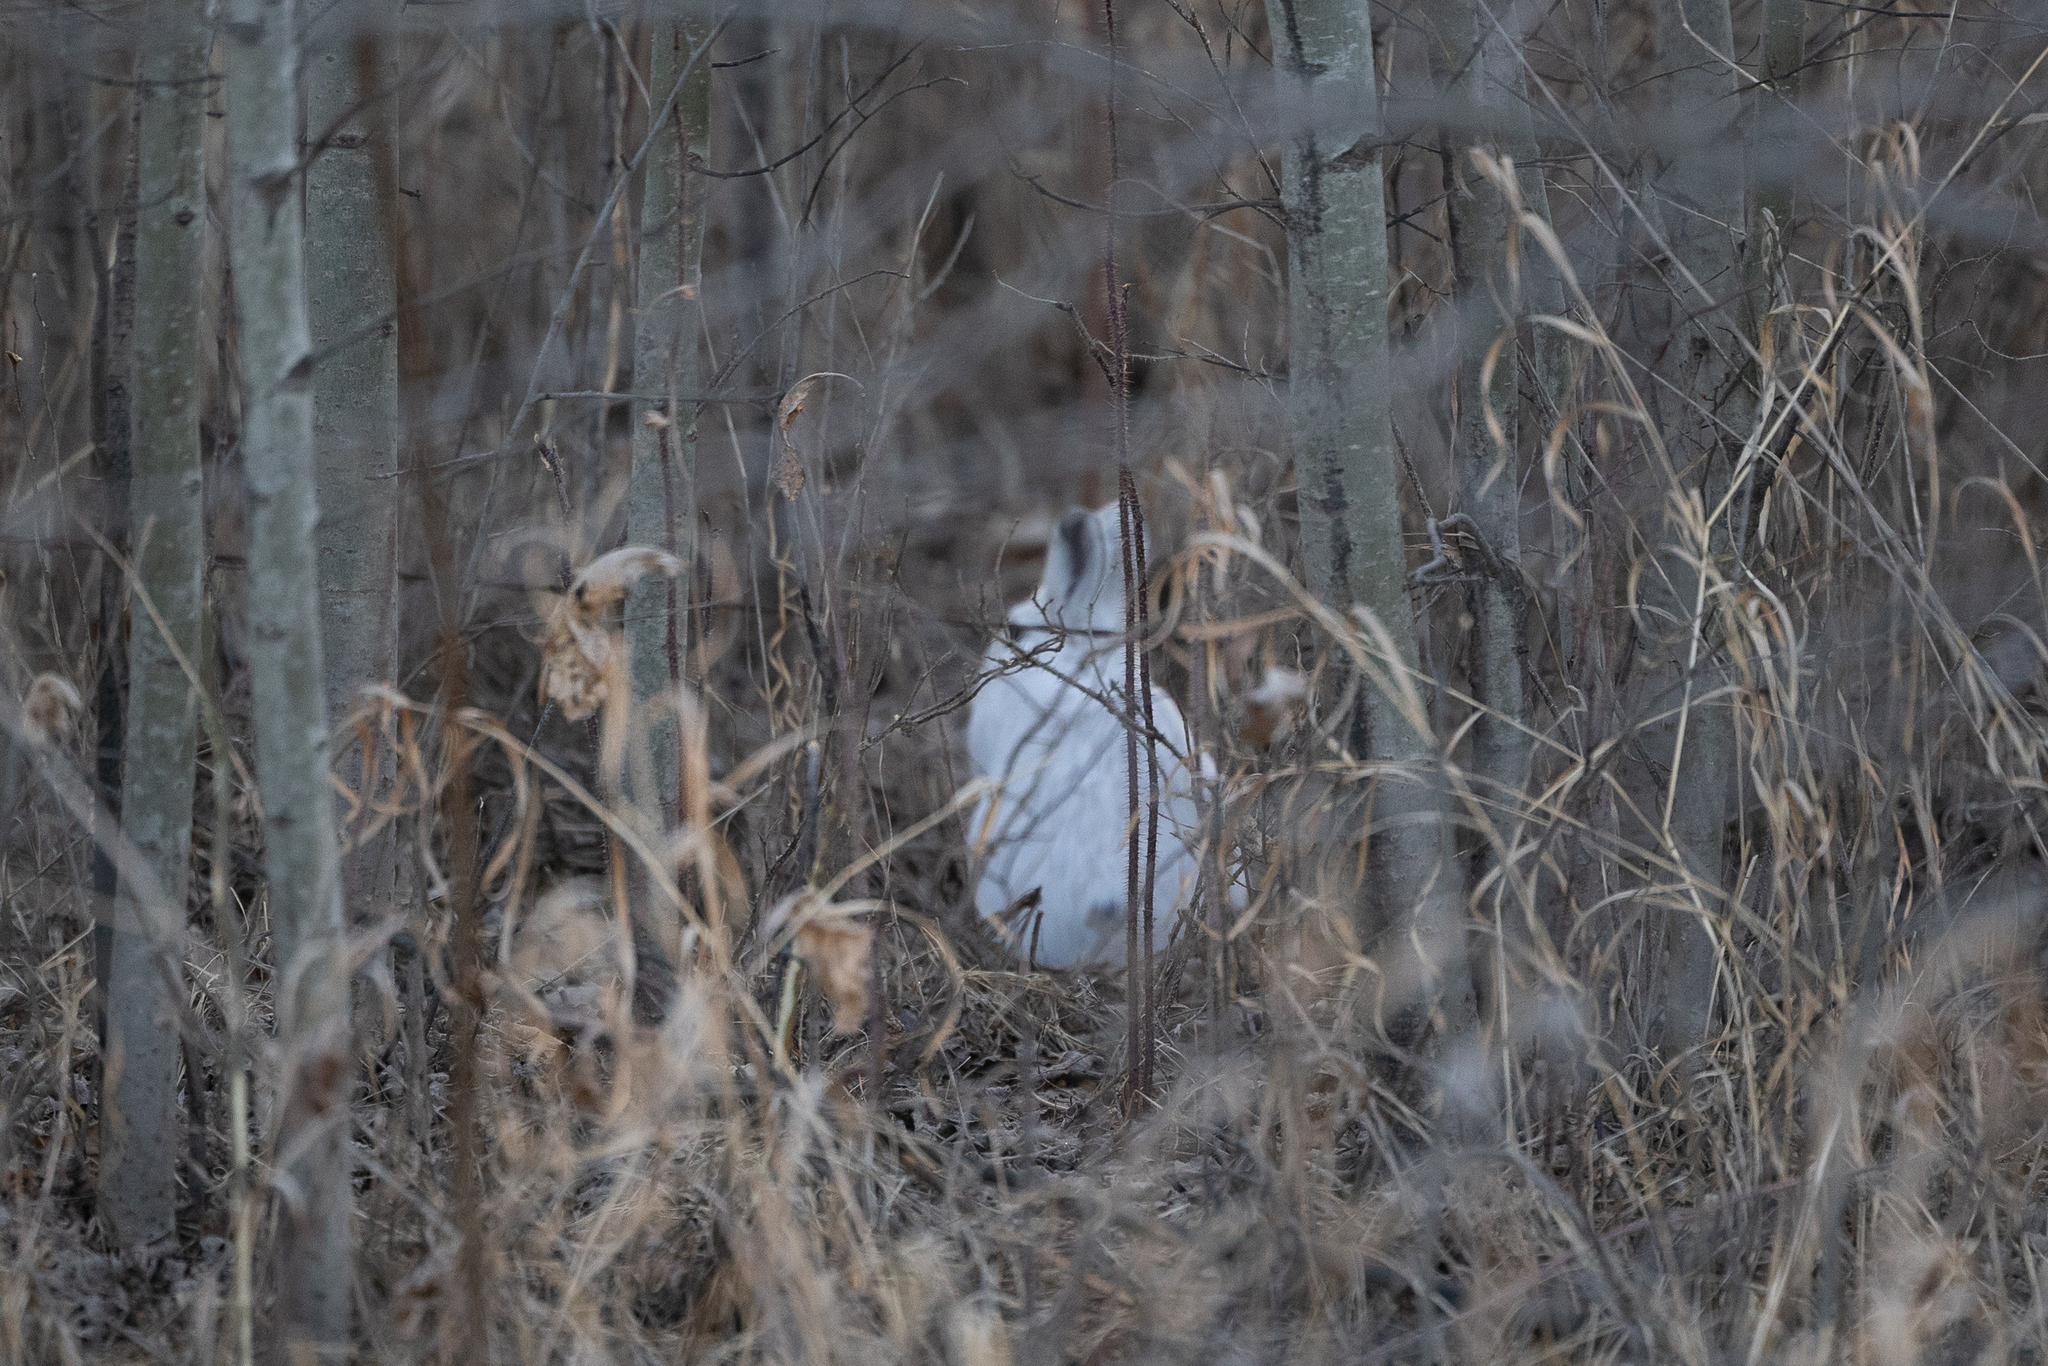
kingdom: Animalia
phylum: Chordata
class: Mammalia
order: Lagomorpha
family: Leporidae
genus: Lepus
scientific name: Lepus americanus
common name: Snowshoe hare
